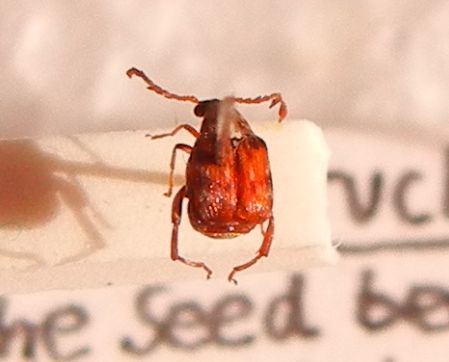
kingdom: Animalia
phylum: Arthropoda
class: Insecta
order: Coleoptera
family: Chrysomelidae
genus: Callosobruchus
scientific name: Callosobruchus chinensis
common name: Lesser cowpea weevil
